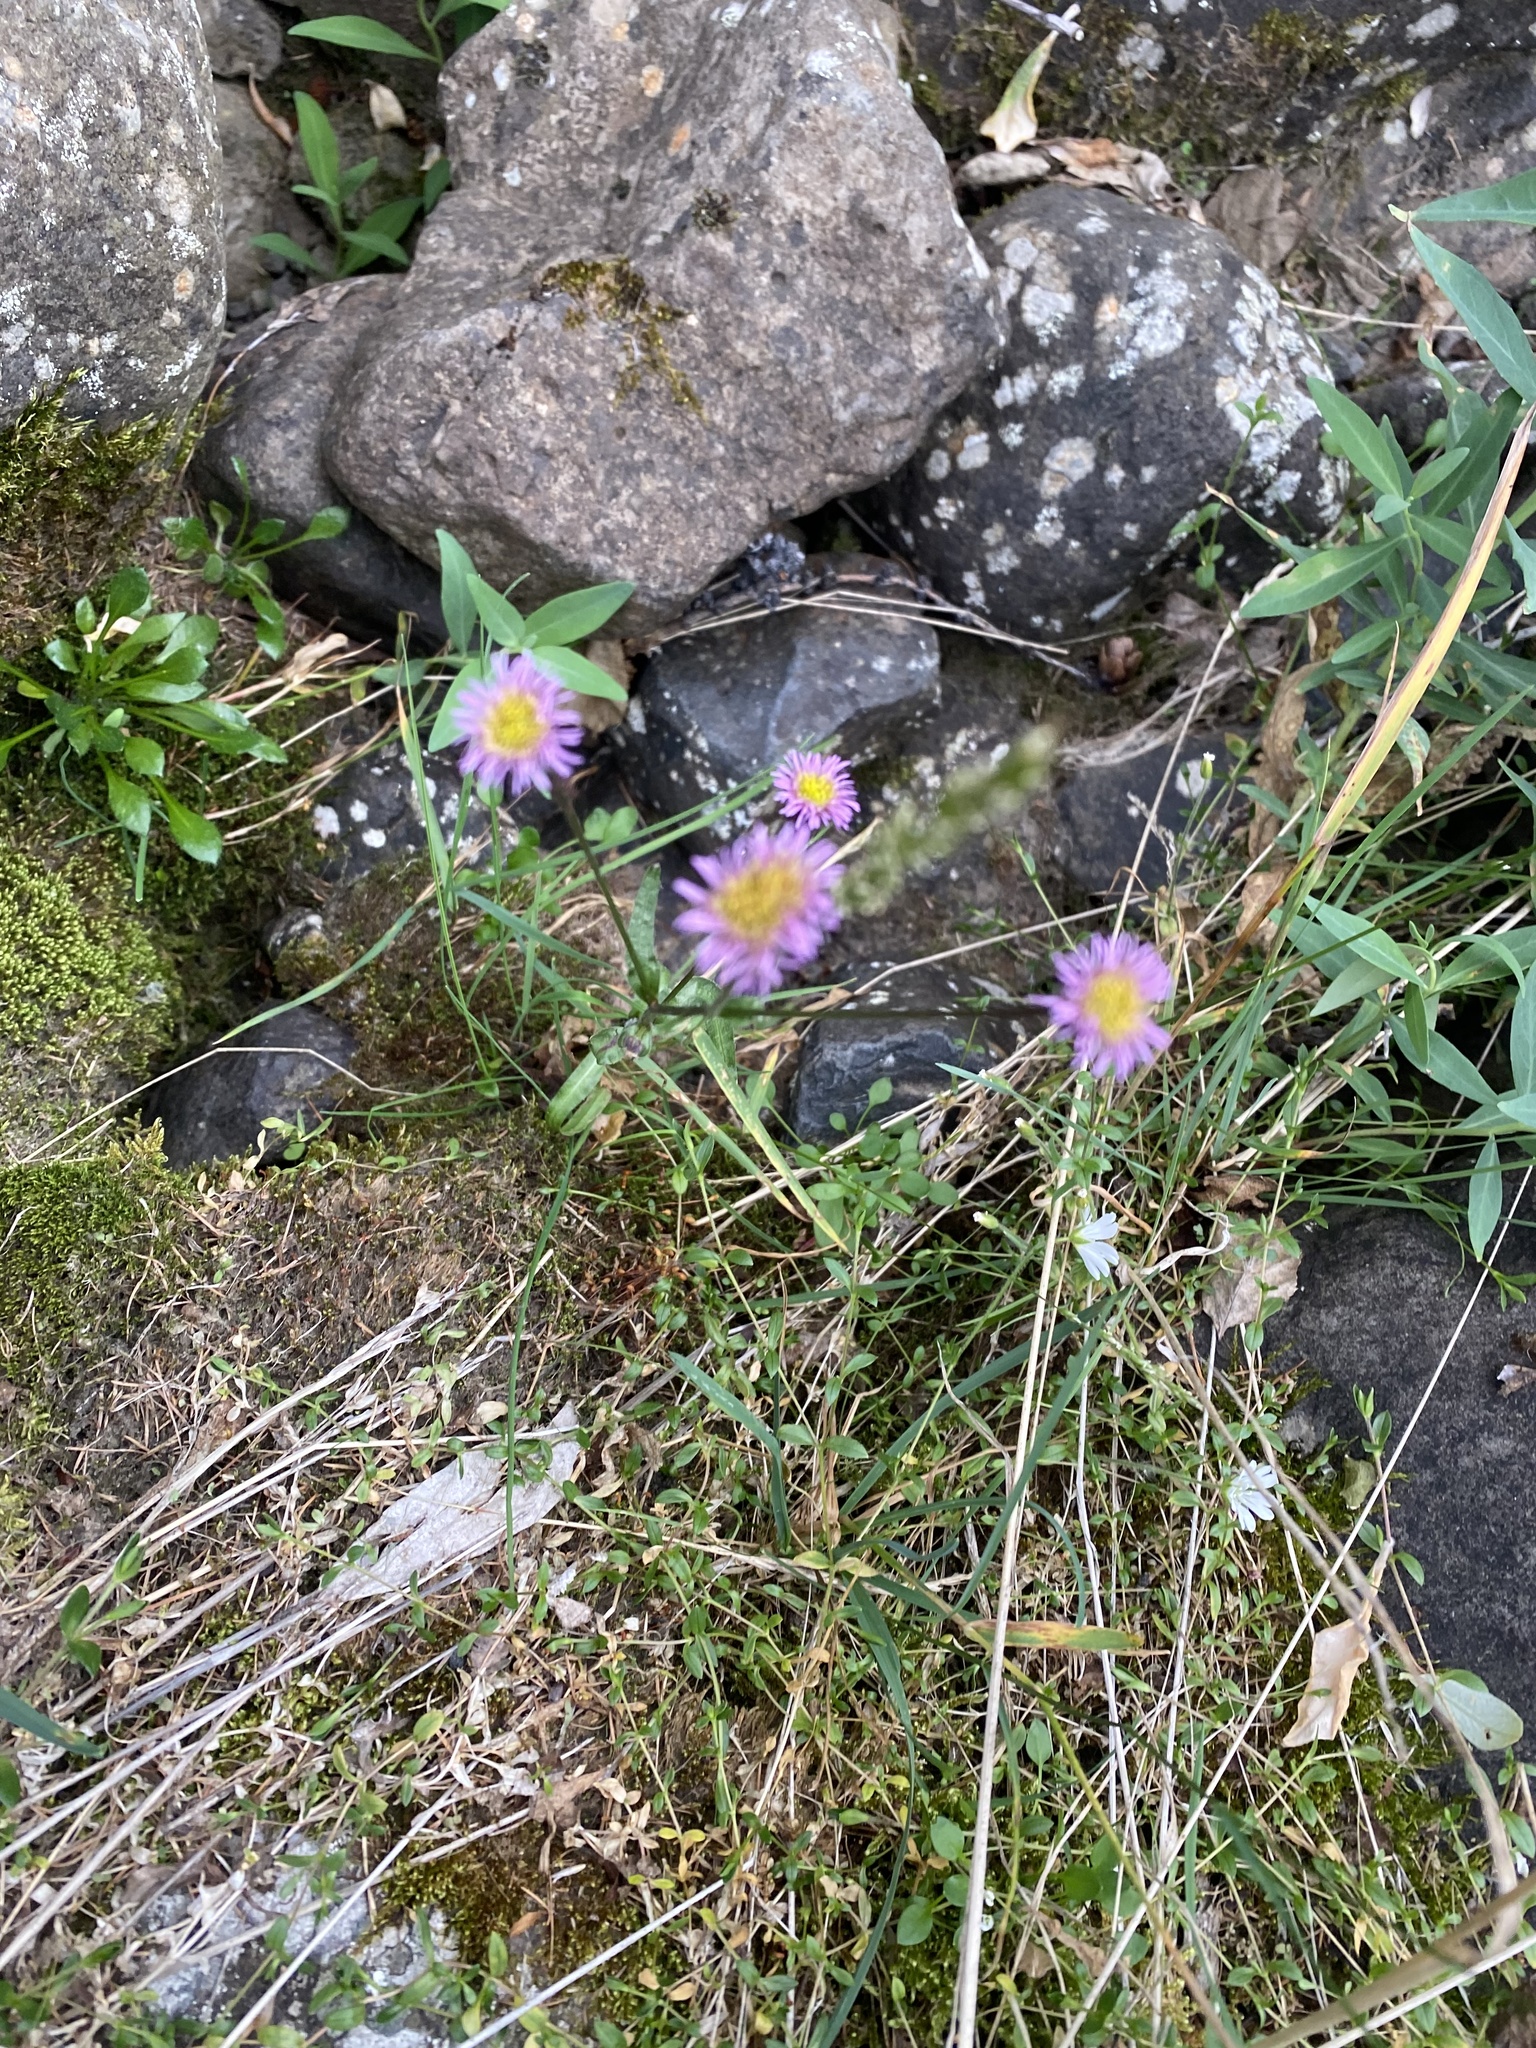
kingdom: Plantae
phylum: Tracheophyta
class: Magnoliopsida
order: Asterales
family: Asteraceae
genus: Erigeron
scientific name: Erigeron acris
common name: Blue fleabane
